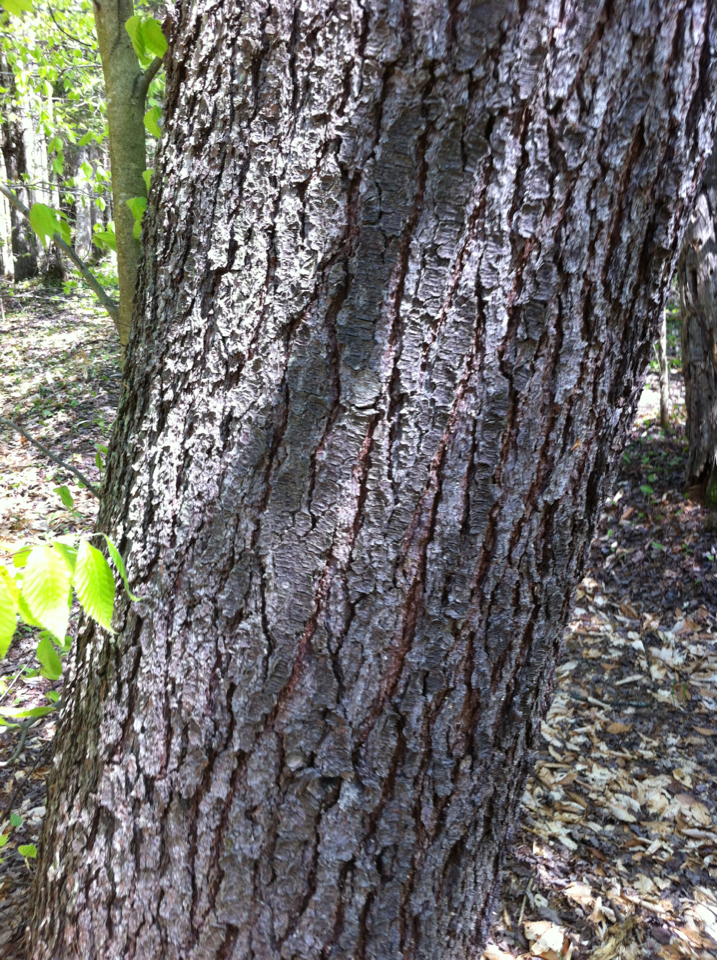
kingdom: Plantae
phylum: Tracheophyta
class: Pinopsida
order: Pinales
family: Pinaceae
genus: Pinus
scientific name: Pinus strobus
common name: Weymouth pine
